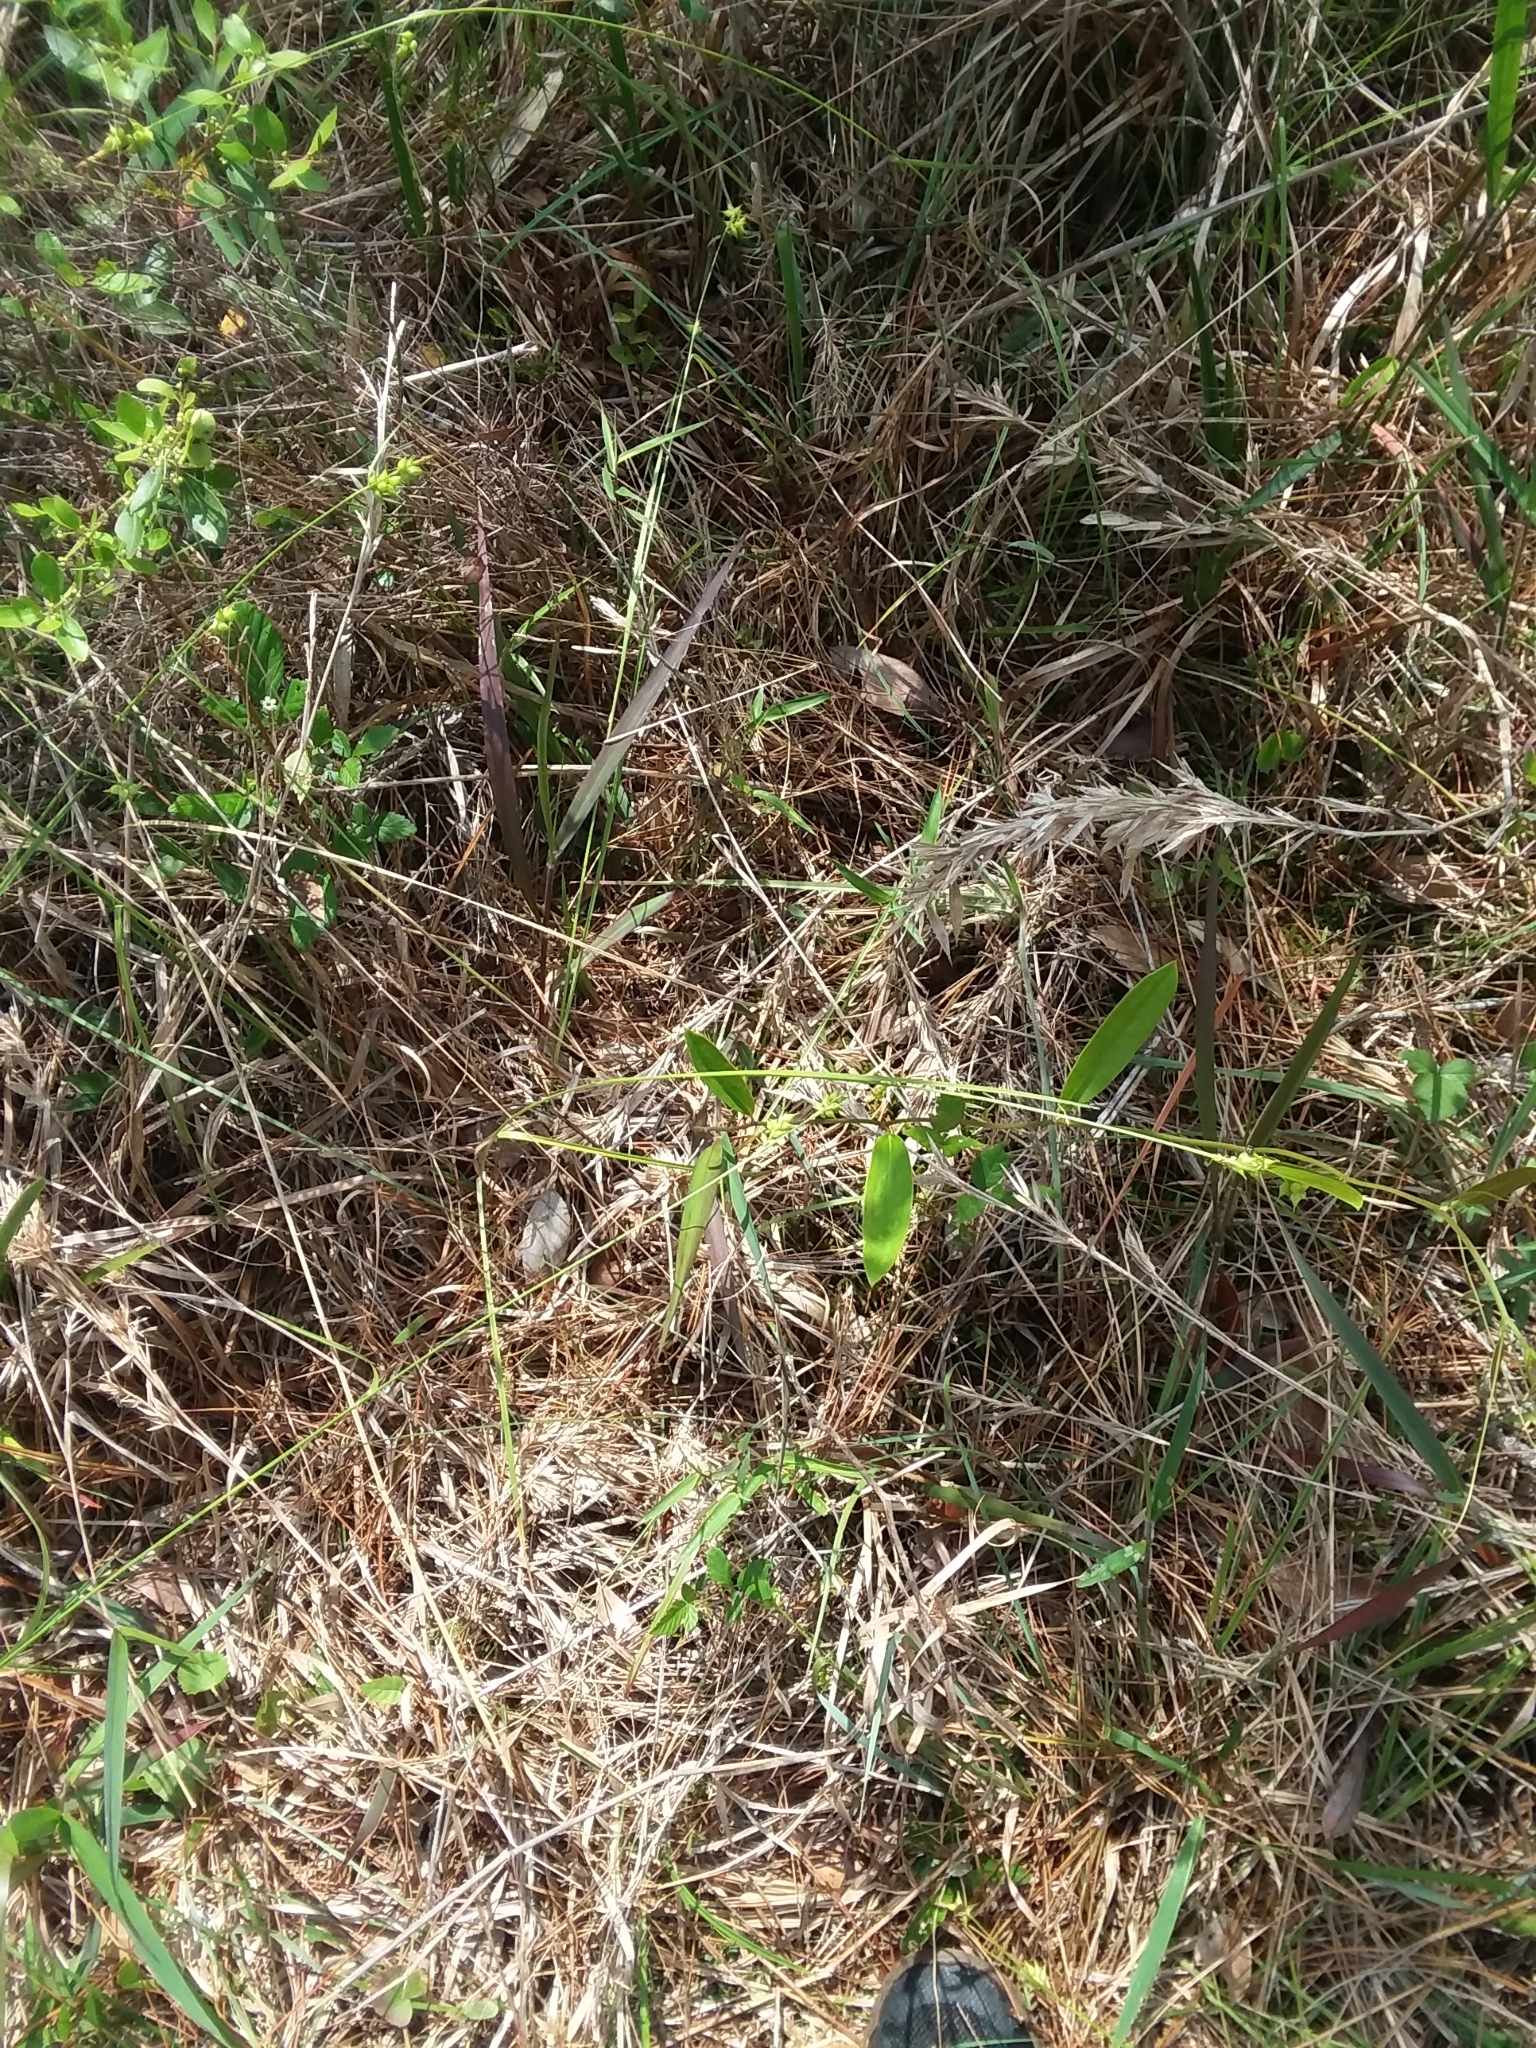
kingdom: Plantae
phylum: Tracheophyta
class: Liliopsida
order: Poales
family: Cyperaceae
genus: Carex
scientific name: Carex turgescens
